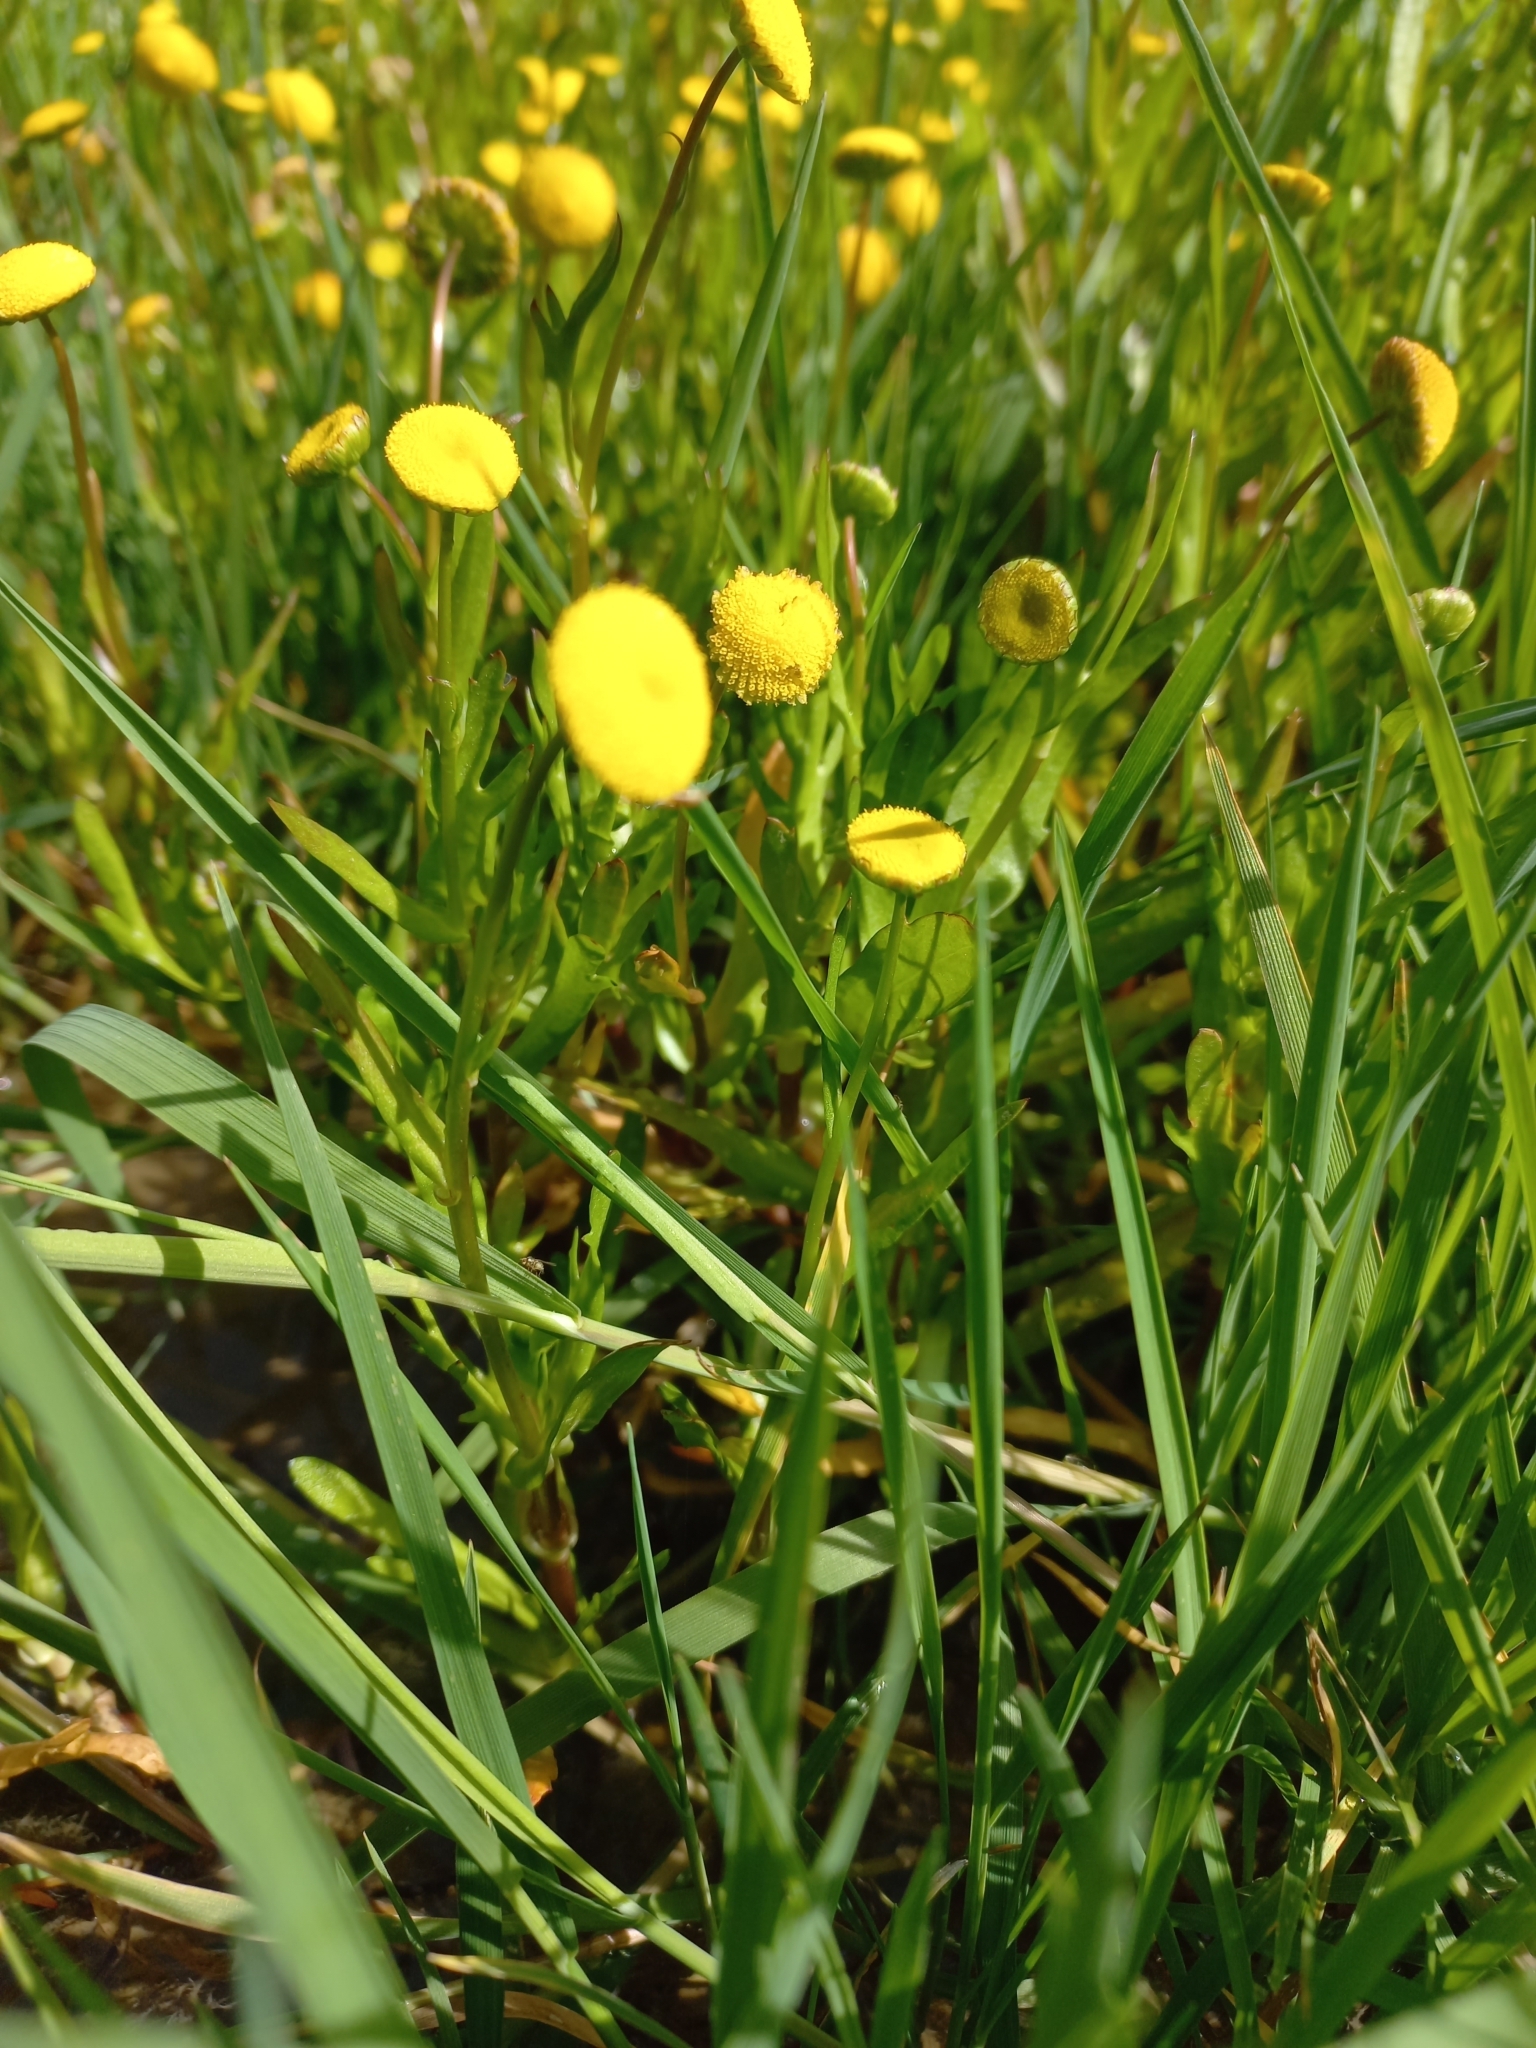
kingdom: Plantae
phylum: Tracheophyta
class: Magnoliopsida
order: Asterales
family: Asteraceae
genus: Cotula
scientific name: Cotula coronopifolia
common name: Buttonweed
